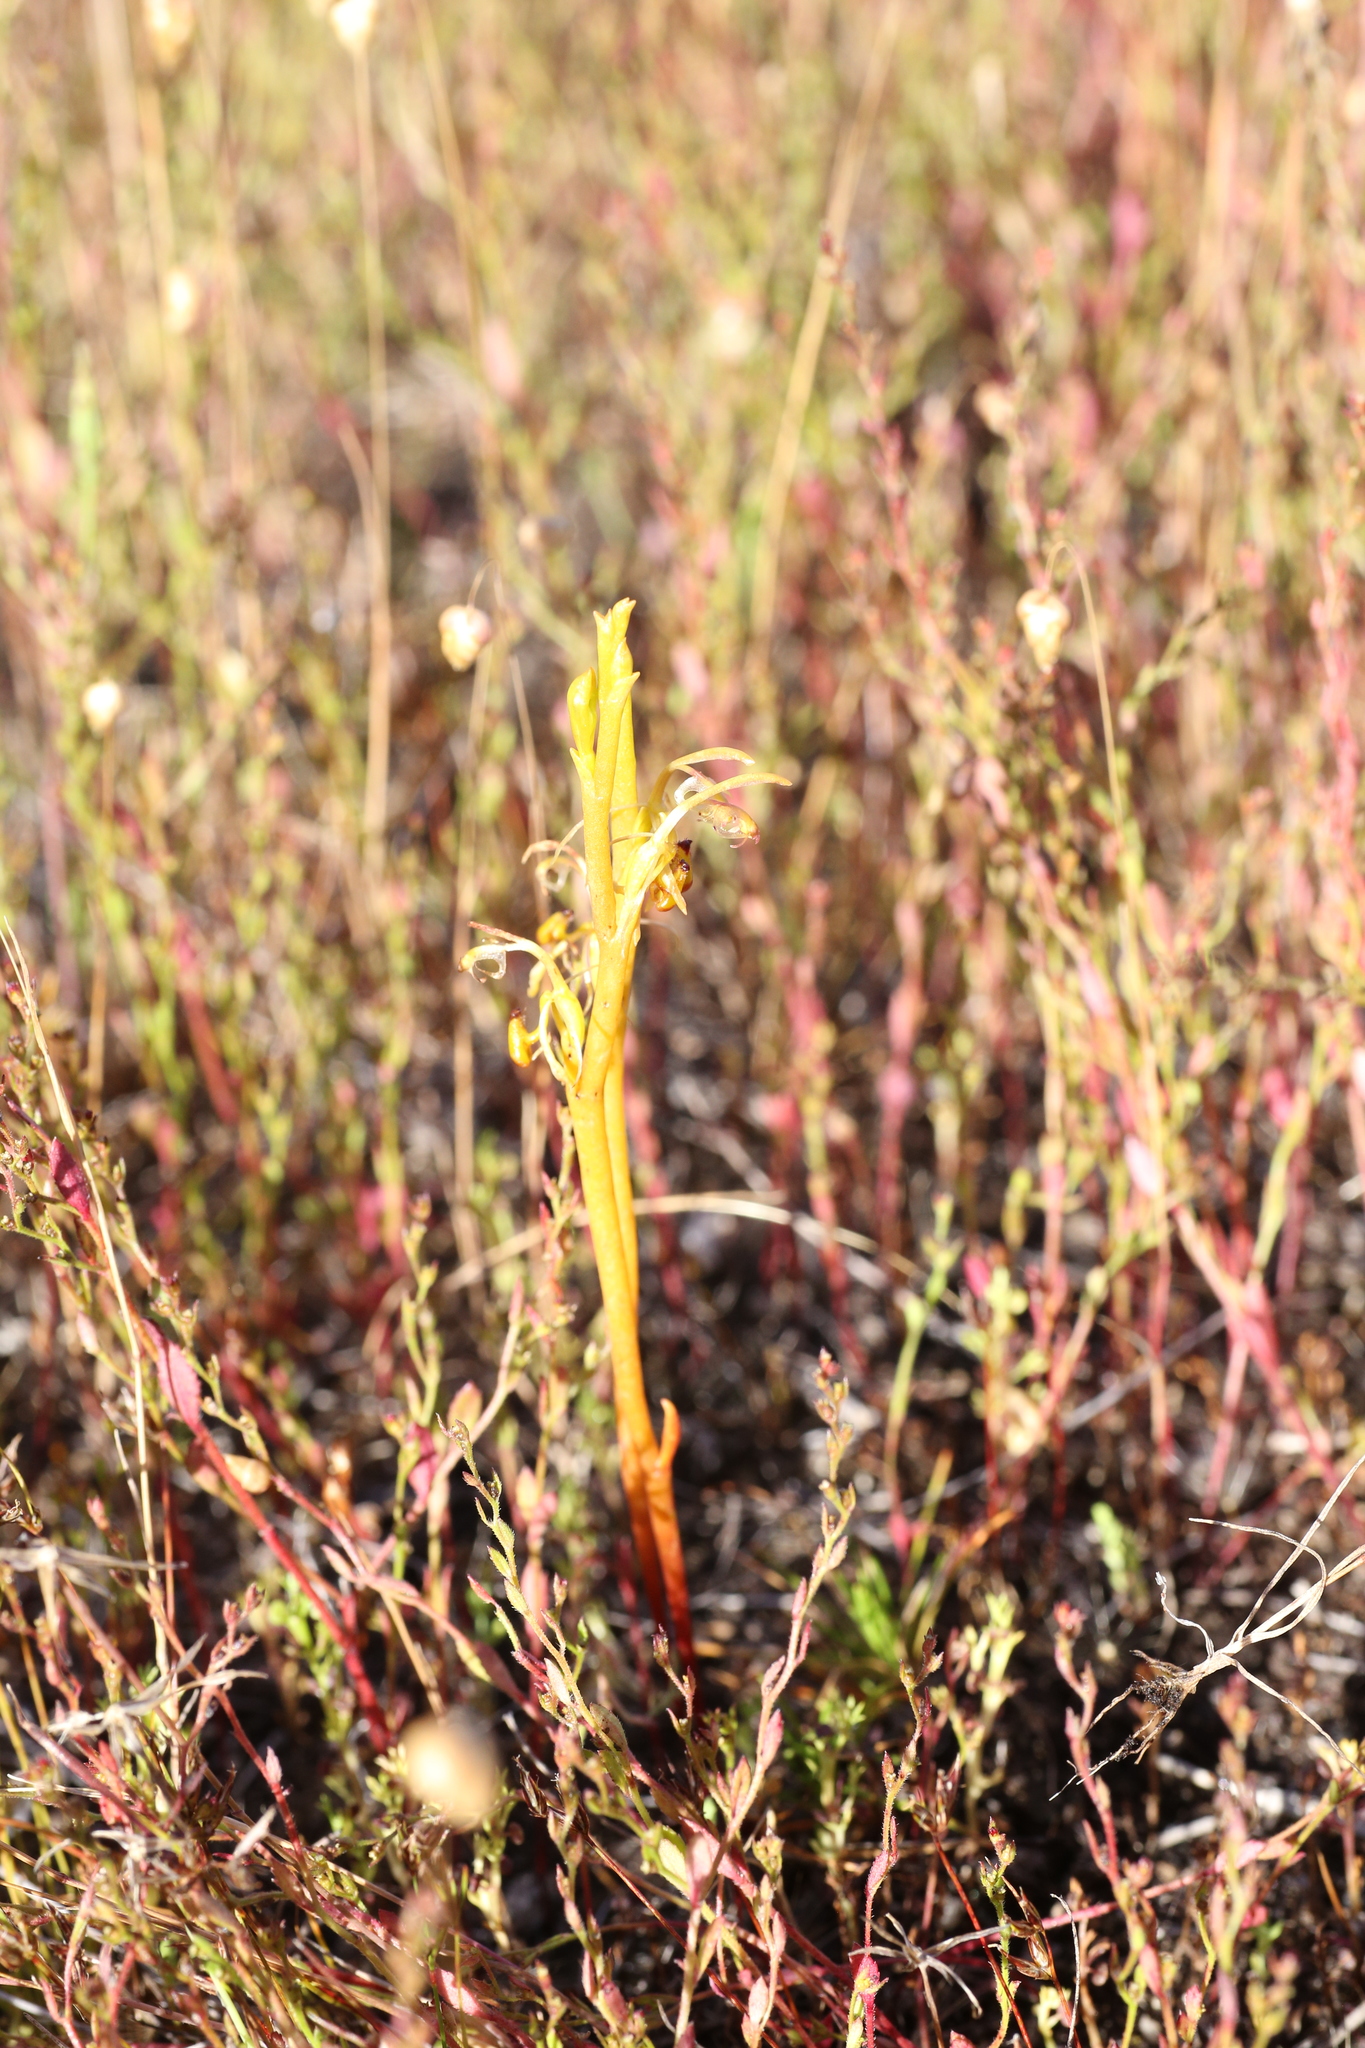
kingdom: Plantae
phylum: Tracheophyta
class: Liliopsida
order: Asparagales
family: Orchidaceae
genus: Spiculaea
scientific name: Spiculaea ciliata
